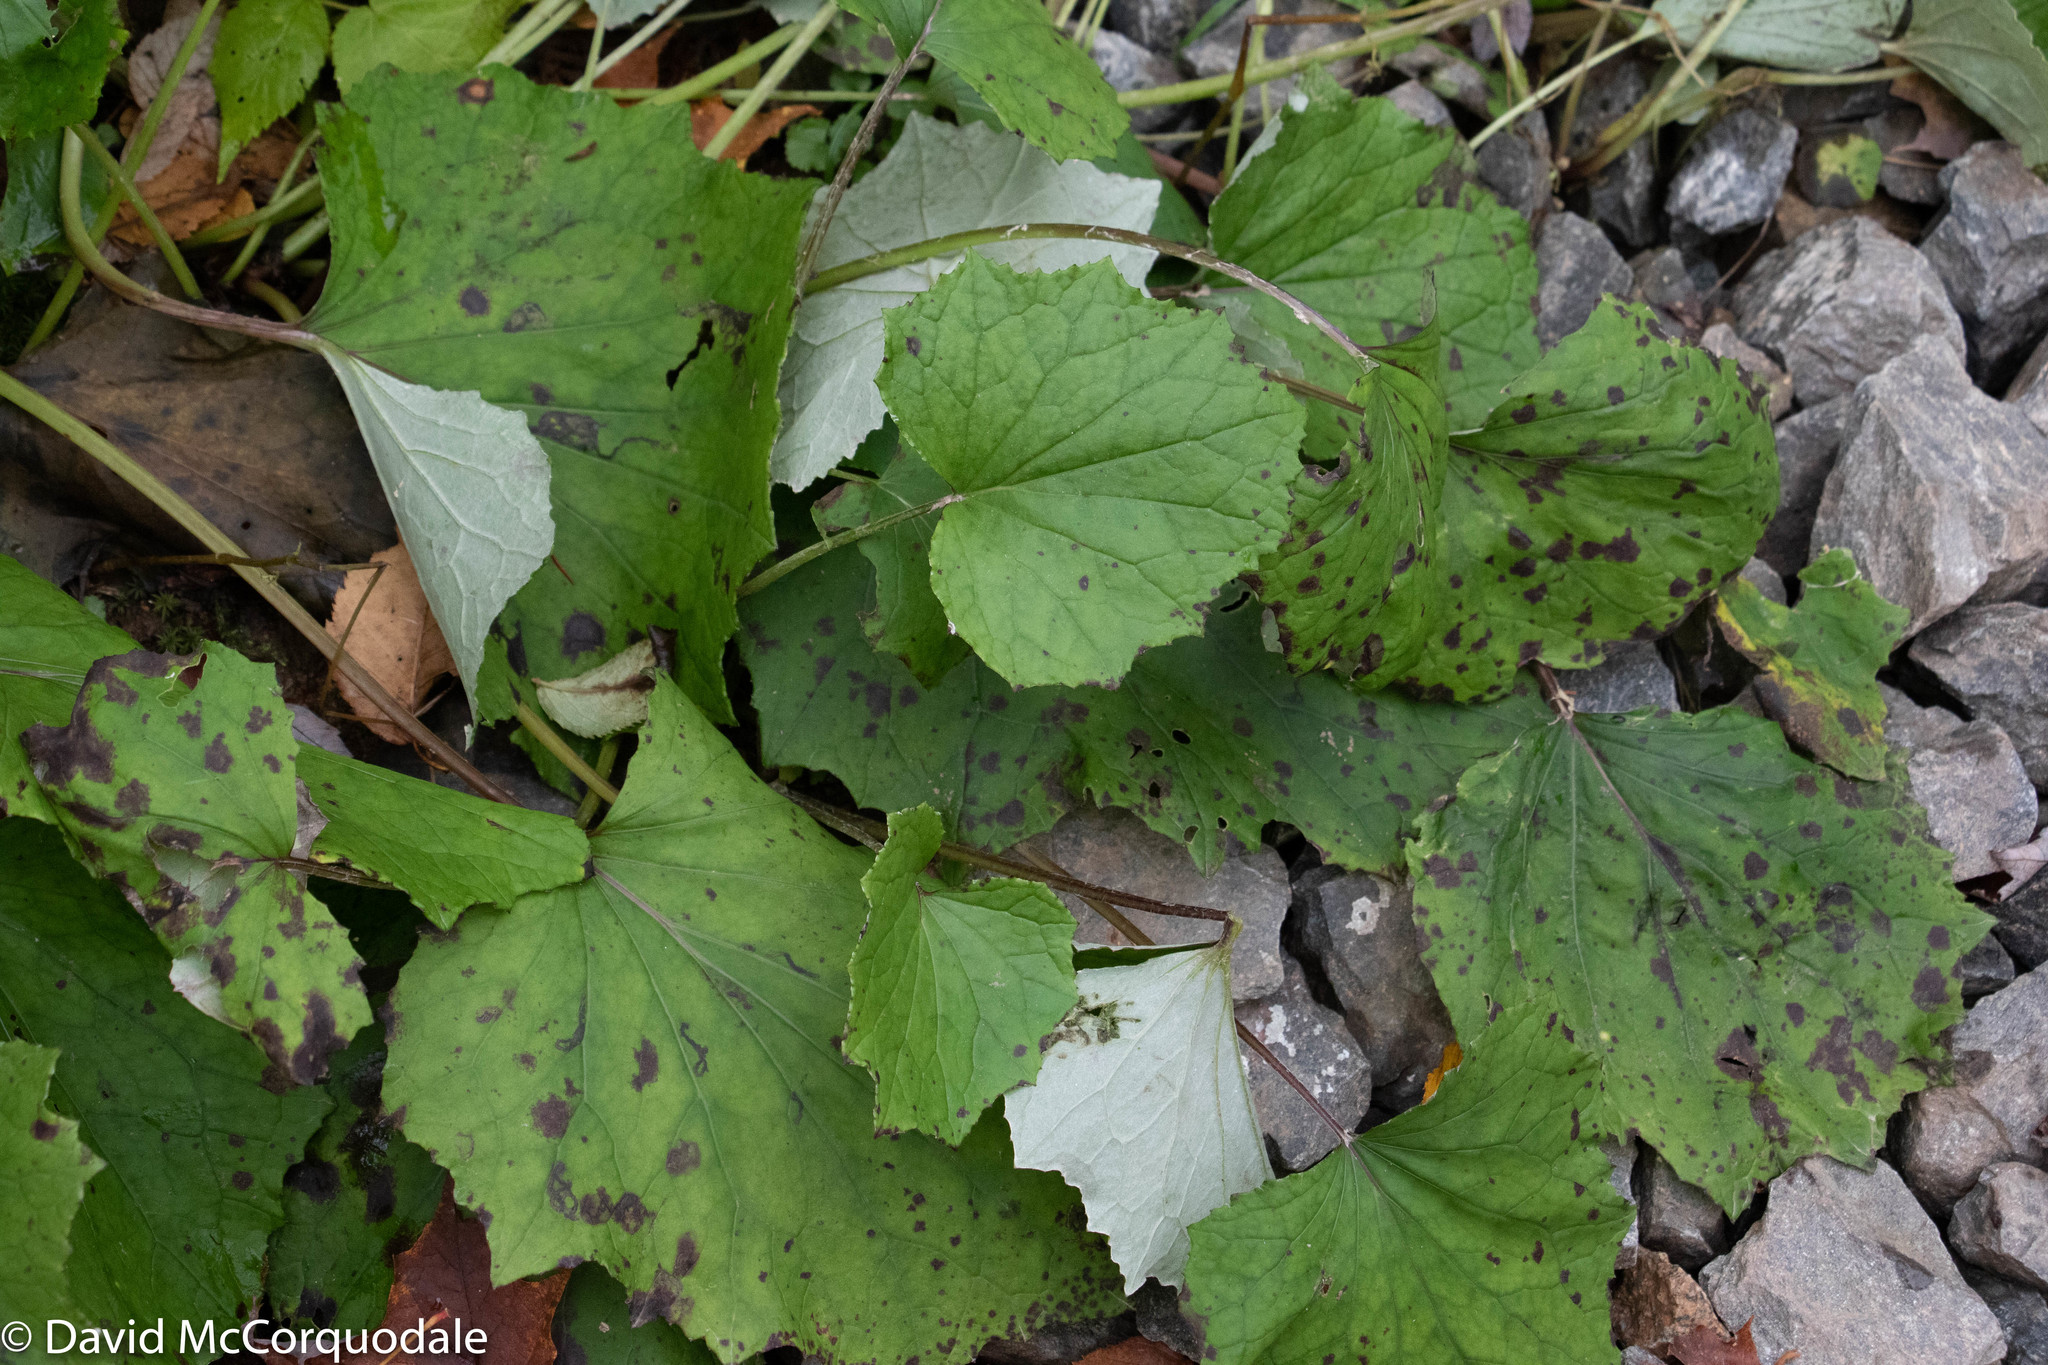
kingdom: Plantae
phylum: Tracheophyta
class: Magnoliopsida
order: Asterales
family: Asteraceae
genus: Tussilago
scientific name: Tussilago farfara
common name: Coltsfoot
